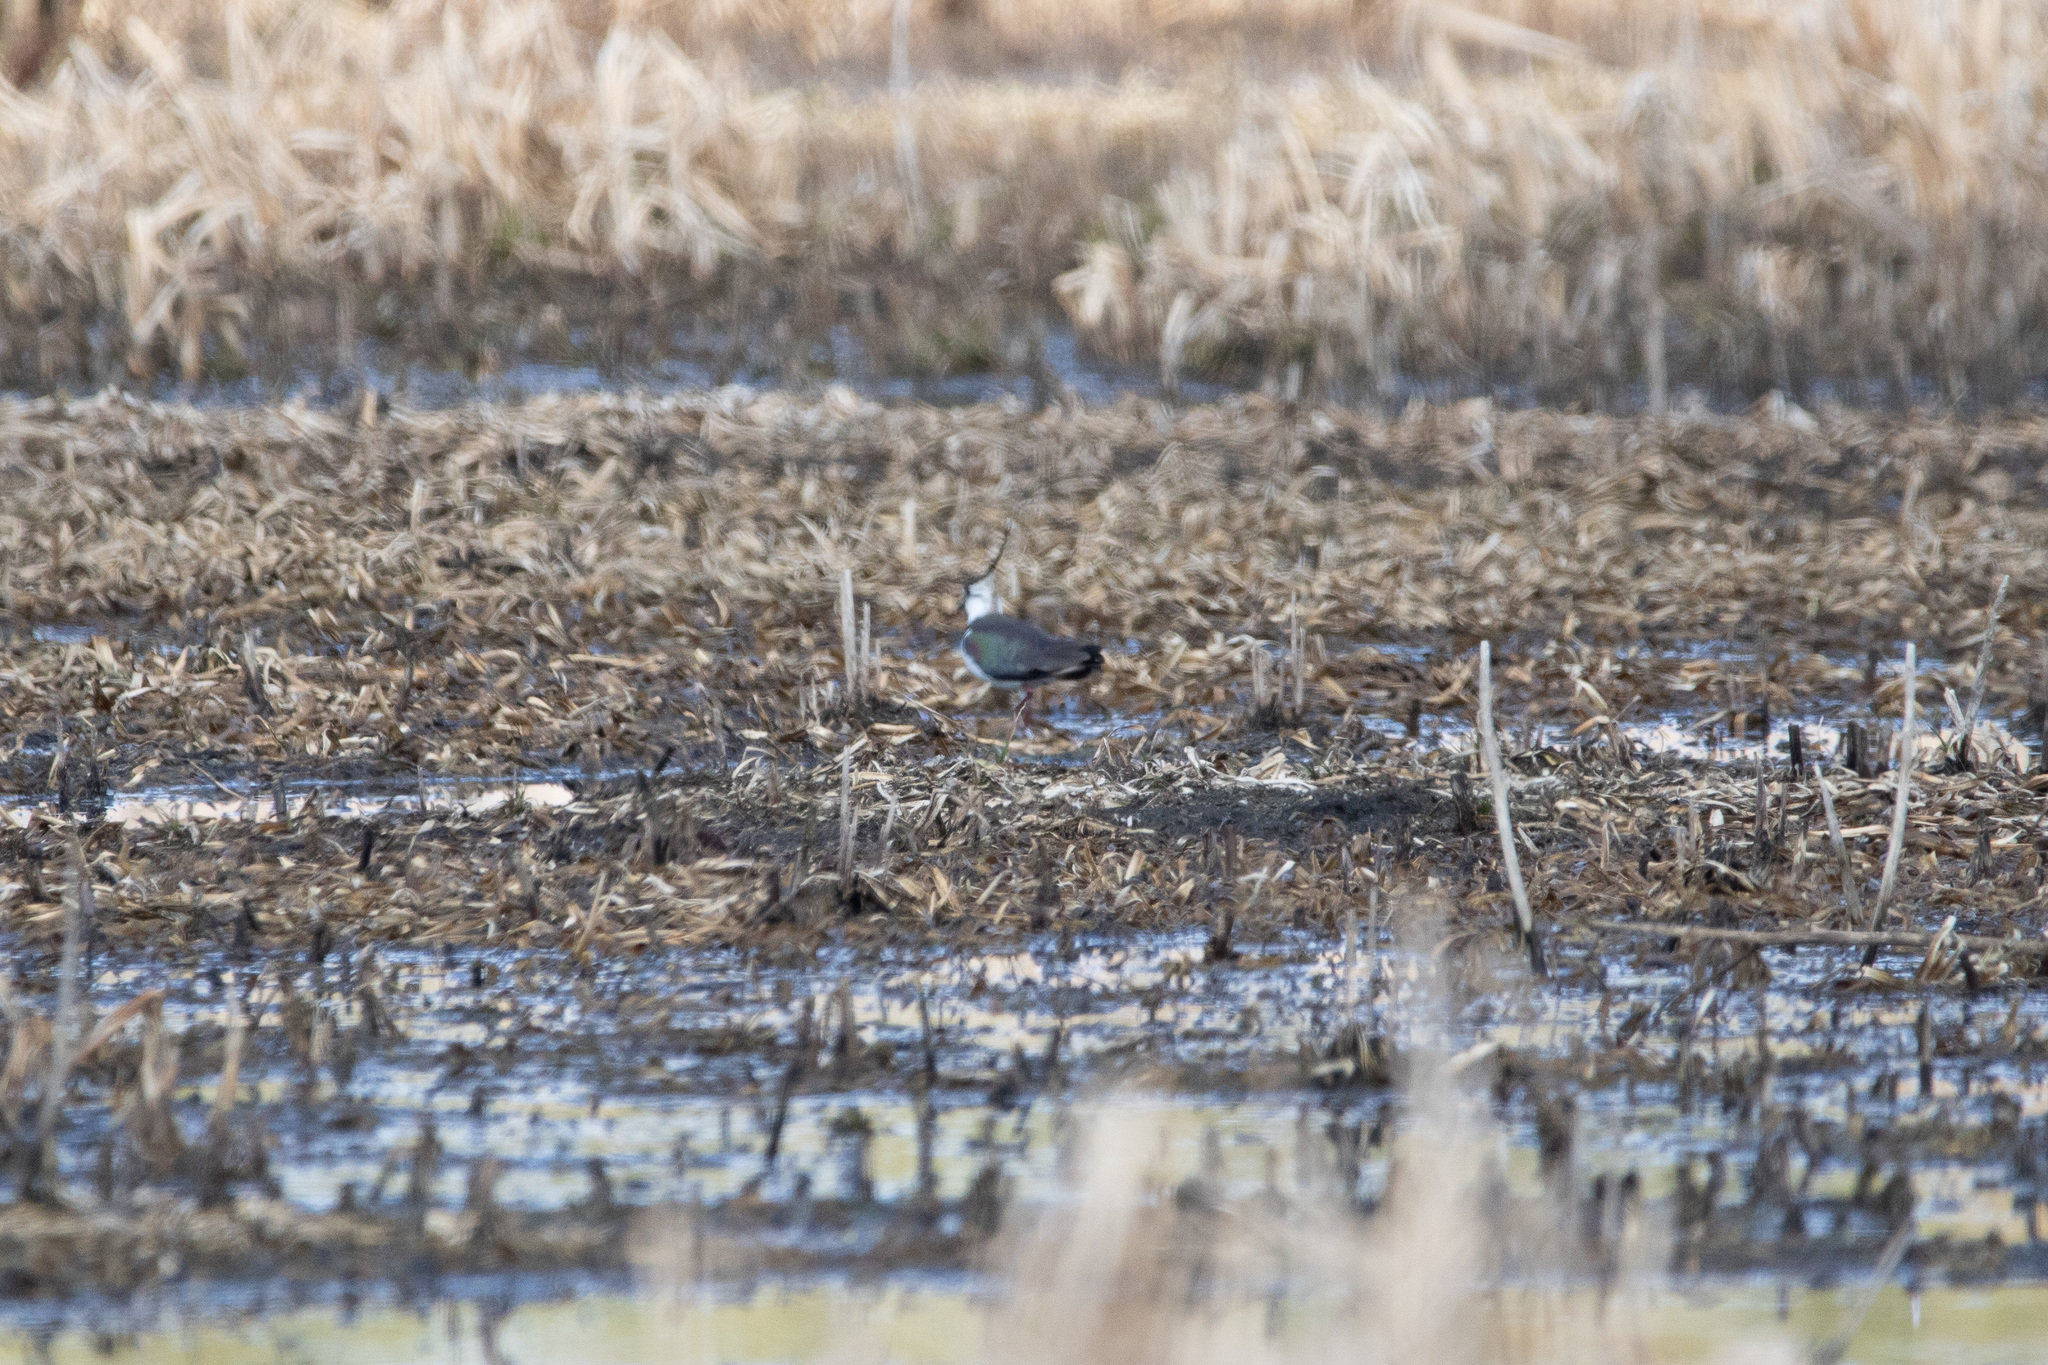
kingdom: Animalia
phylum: Chordata
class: Aves
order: Charadriiformes
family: Charadriidae
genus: Vanellus
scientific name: Vanellus vanellus
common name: Northern lapwing
